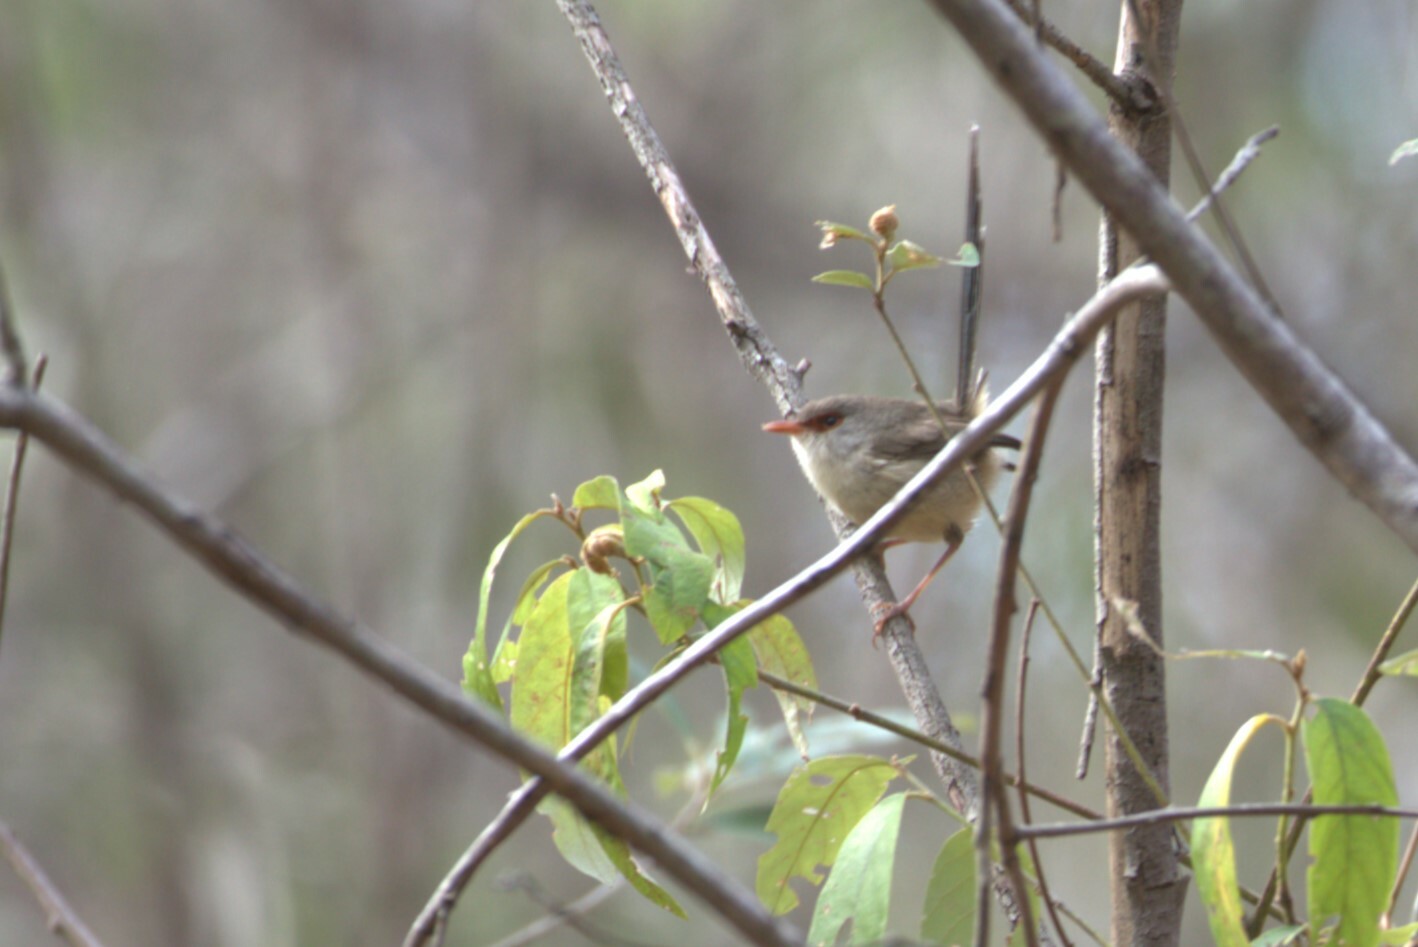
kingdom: Animalia
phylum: Chordata
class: Aves
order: Passeriformes
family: Maluridae
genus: Malurus
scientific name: Malurus lamberti
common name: Variegated fairywren
